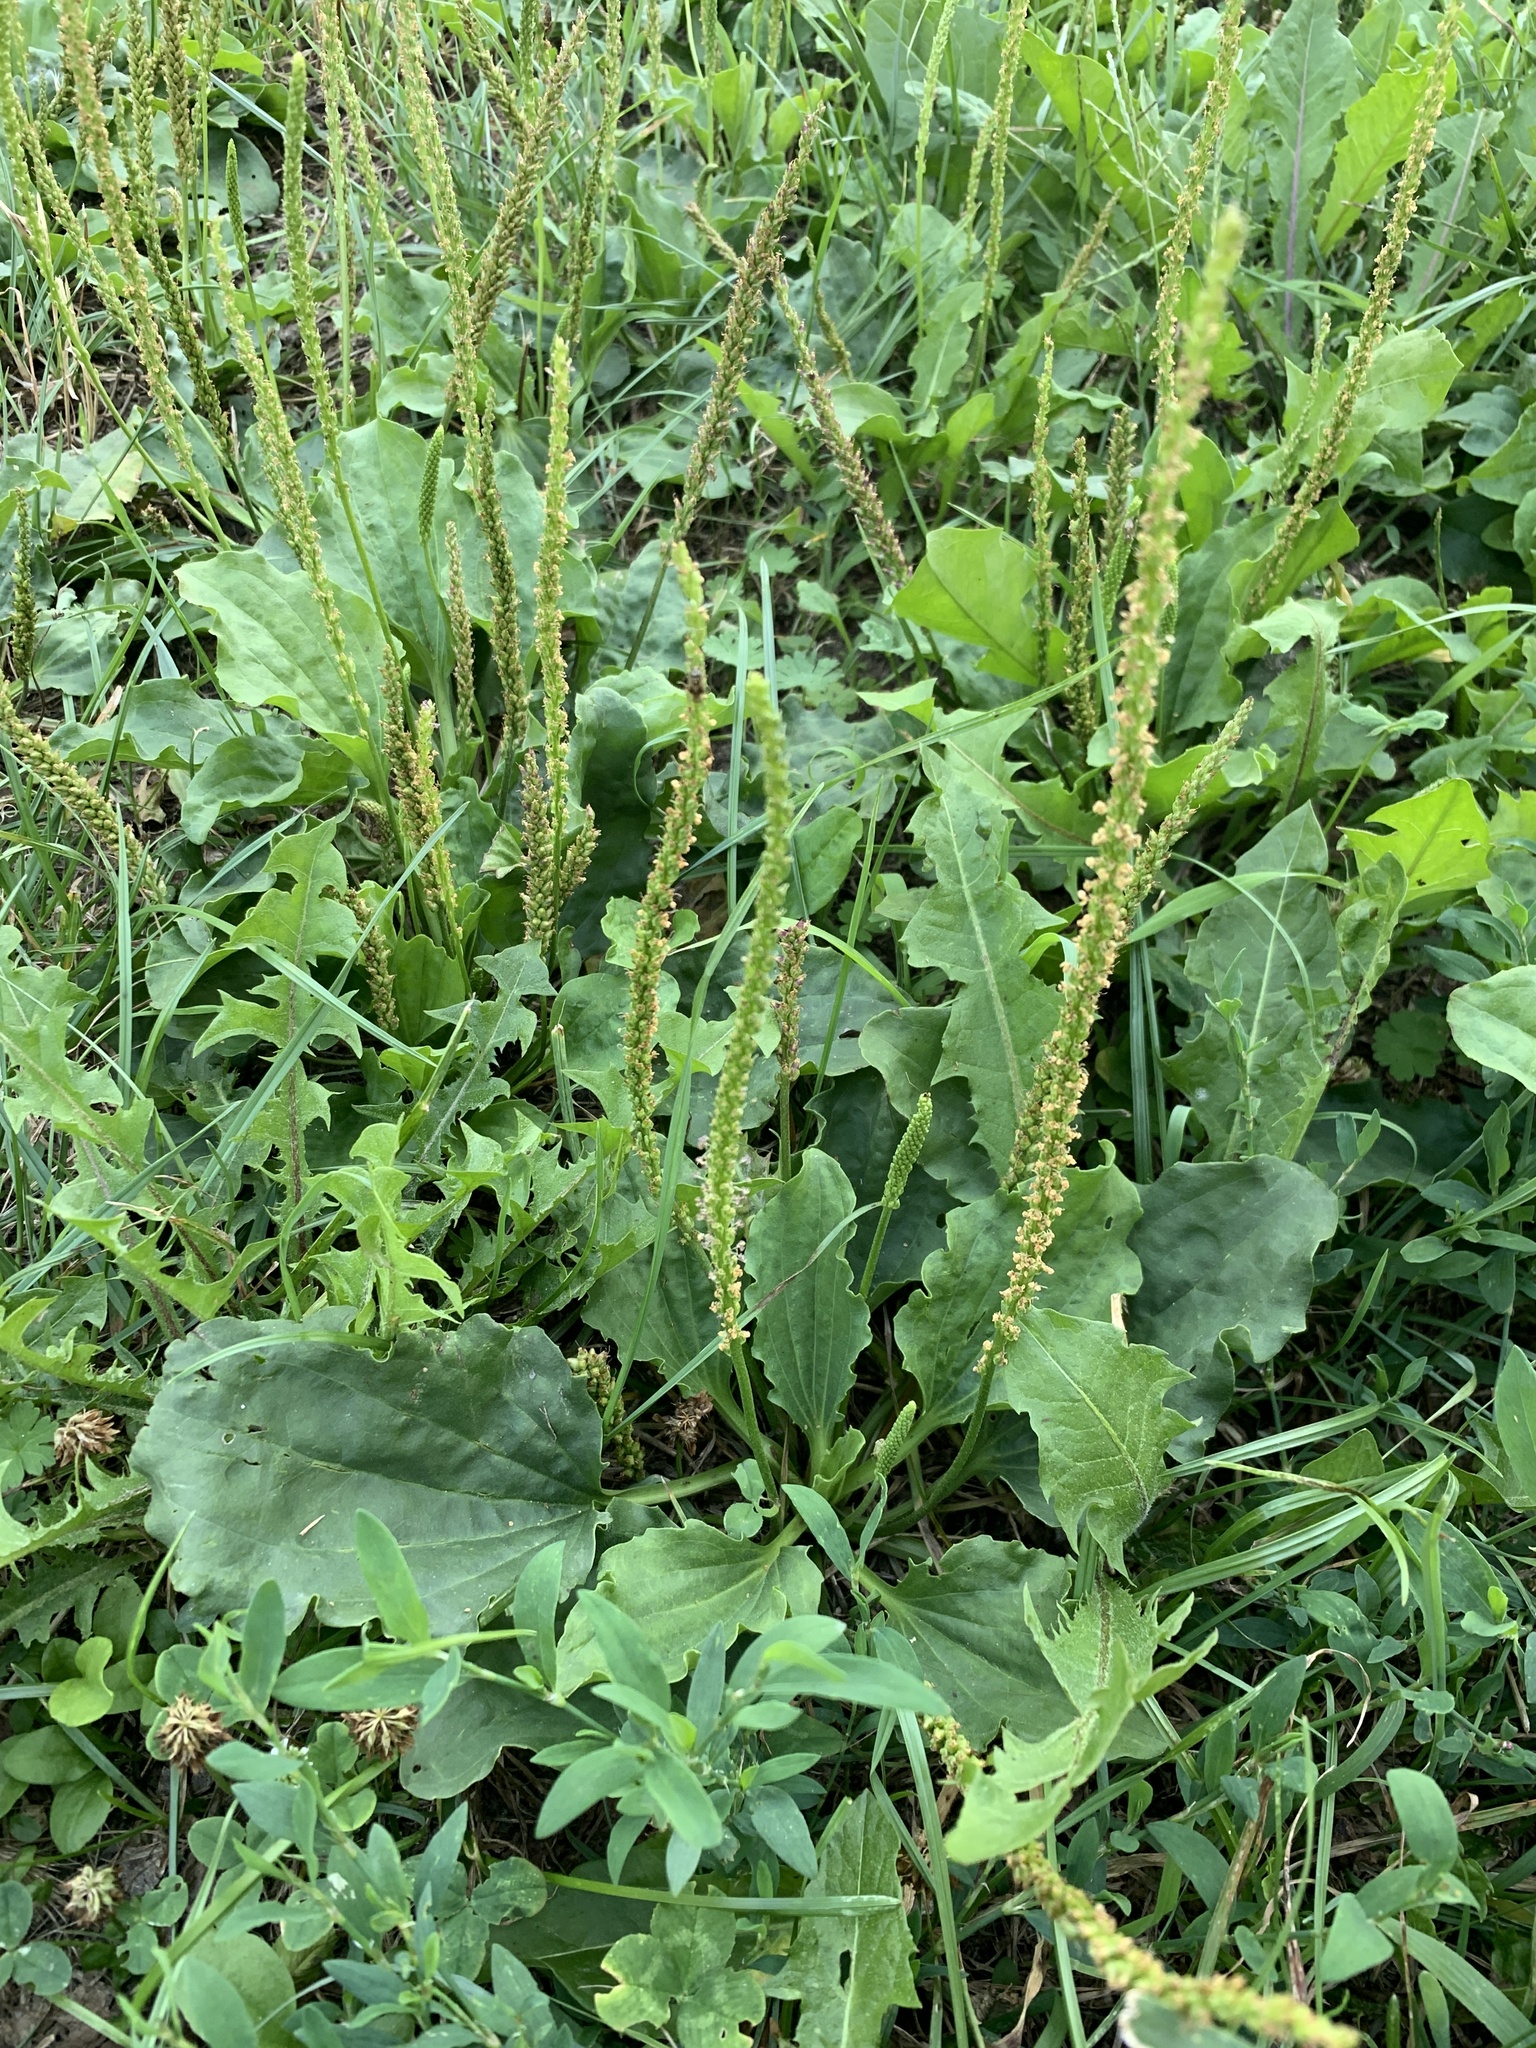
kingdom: Plantae
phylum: Tracheophyta
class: Magnoliopsida
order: Lamiales
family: Plantaginaceae
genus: Plantago
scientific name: Plantago major
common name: Common plantain
